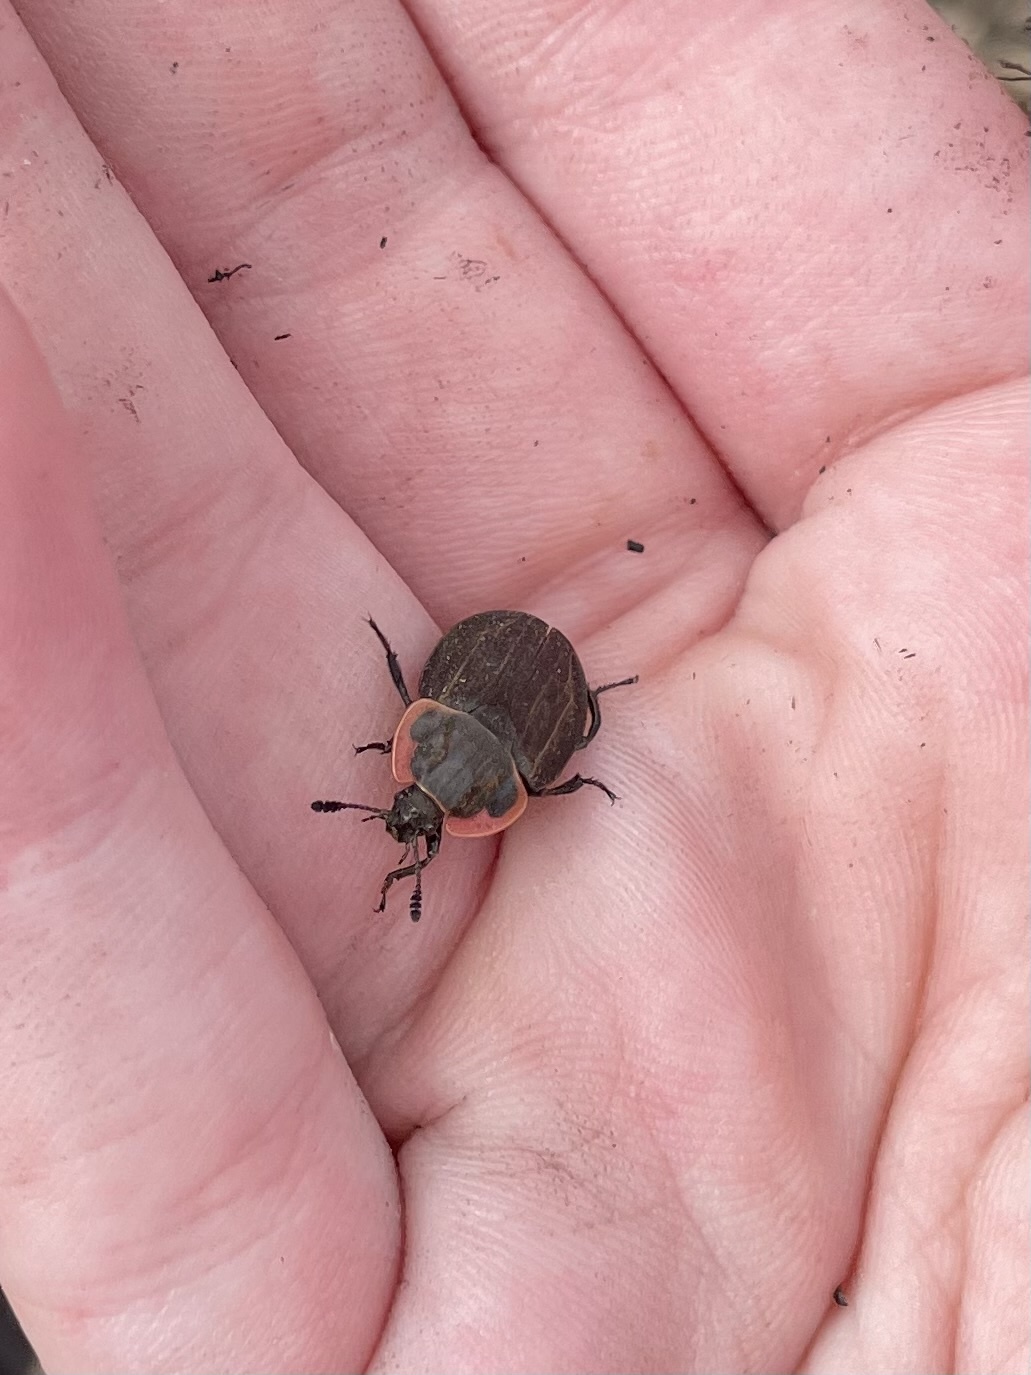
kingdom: Animalia
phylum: Arthropoda
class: Insecta
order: Coleoptera
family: Staphylinidae
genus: Oiceoptoma
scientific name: Oiceoptoma noveboracense
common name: Margined carrion beetle
